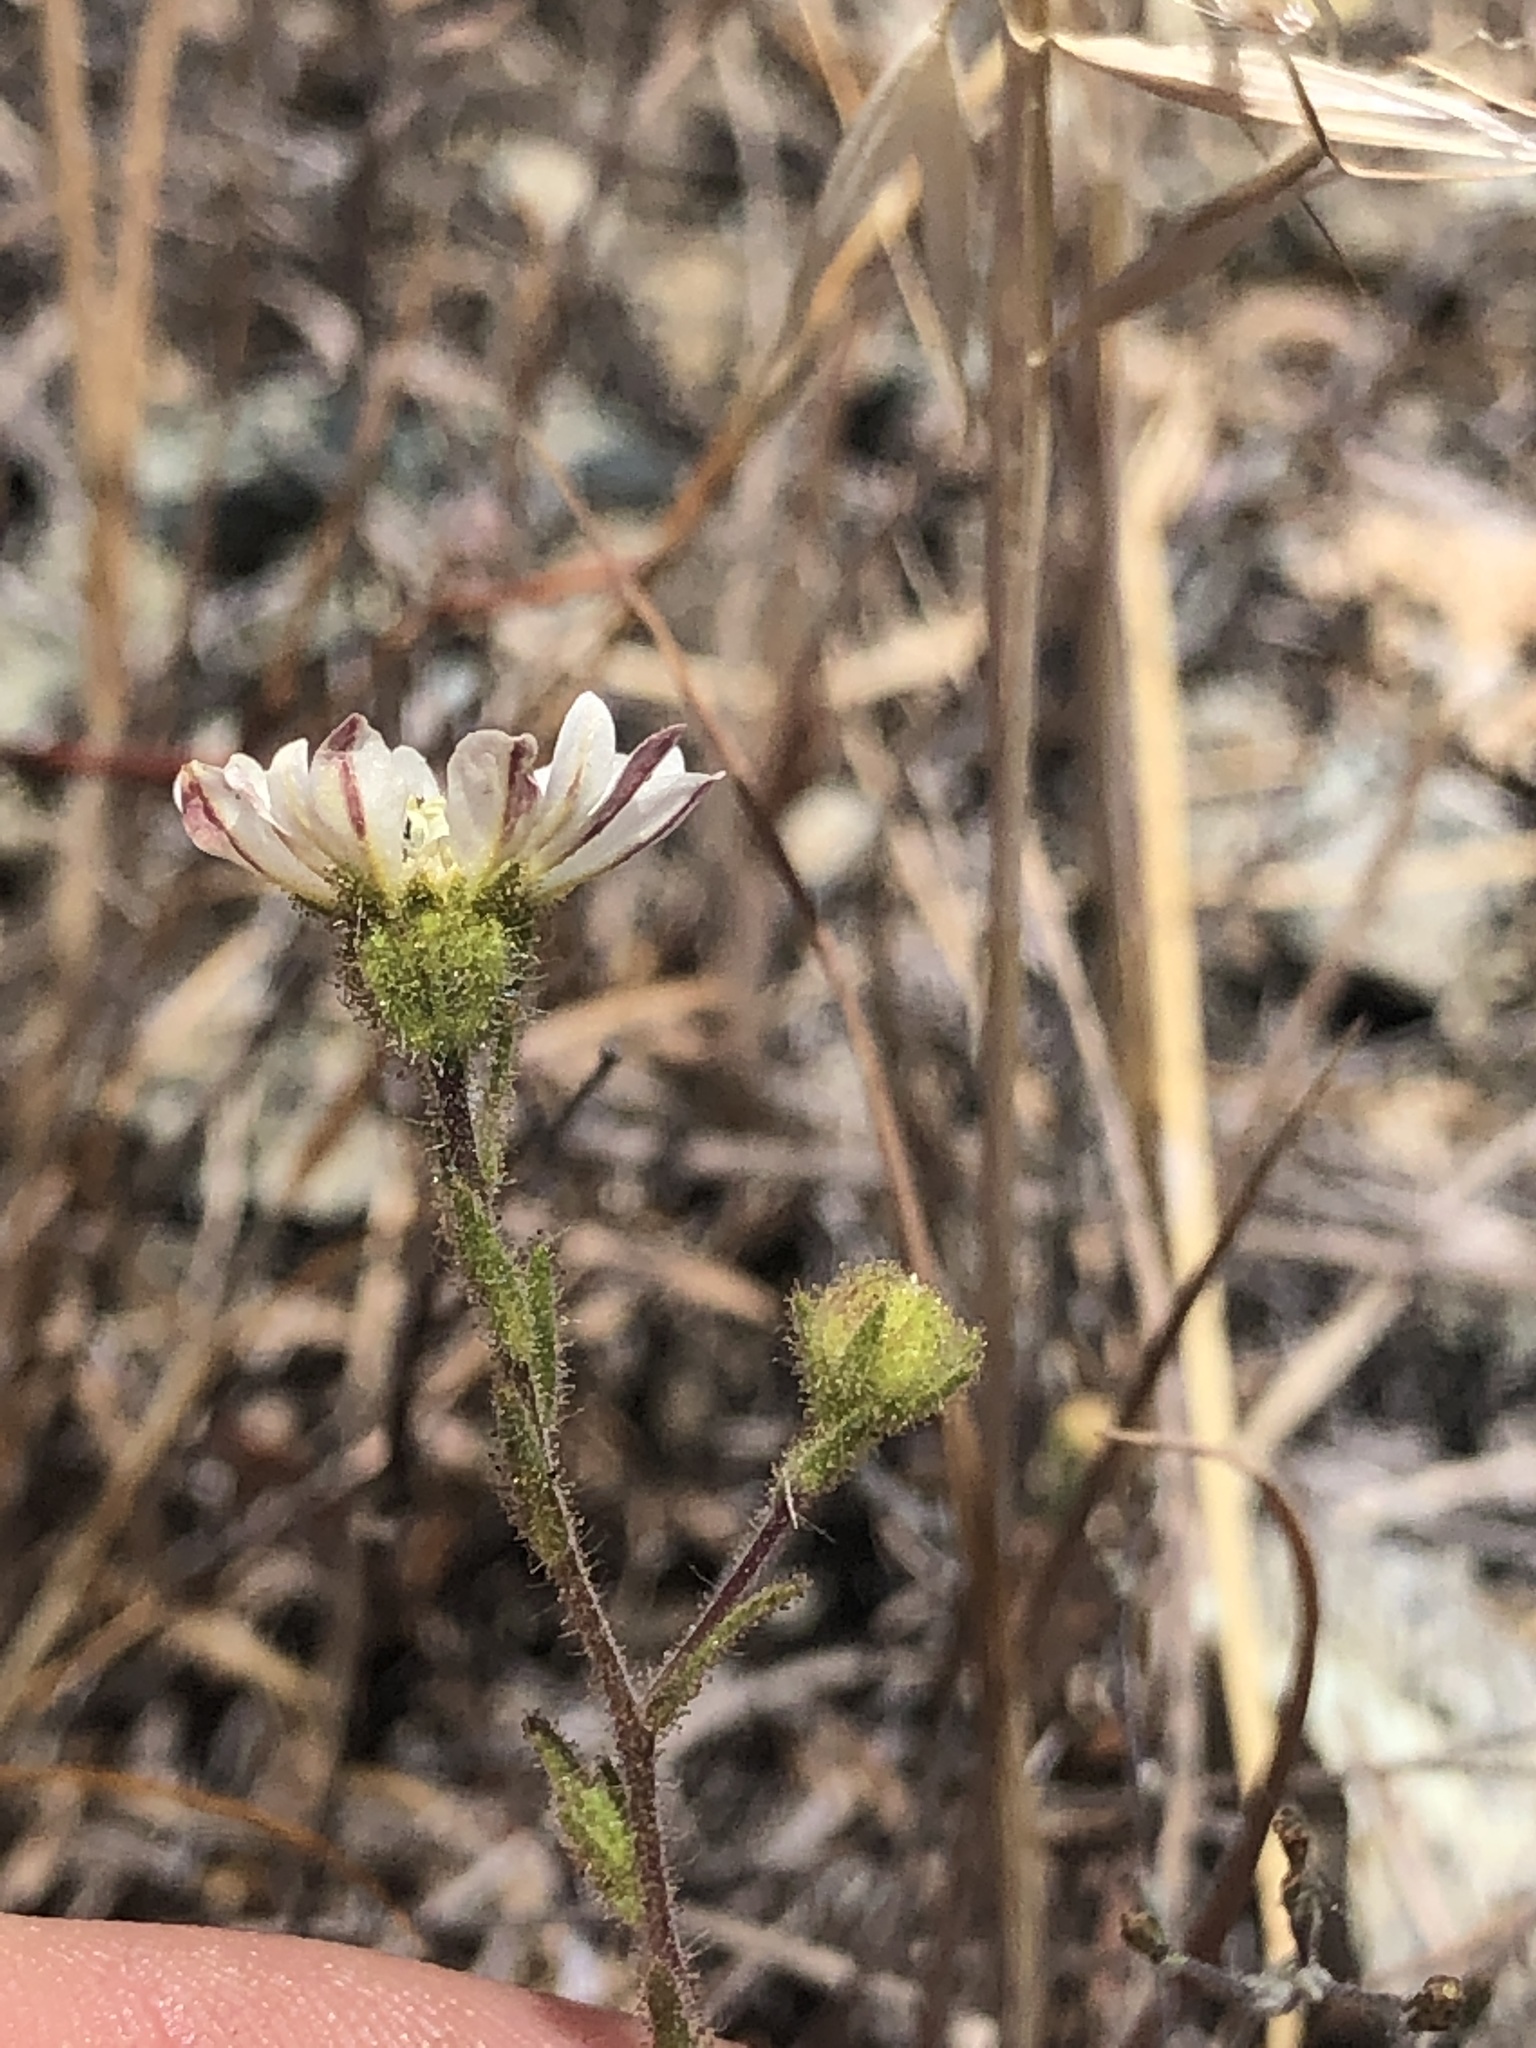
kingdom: Plantae
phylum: Tracheophyta
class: Magnoliopsida
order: Asterales
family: Asteraceae
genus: Hemizonia
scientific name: Hemizonia congesta
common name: Hayfield tarweed
